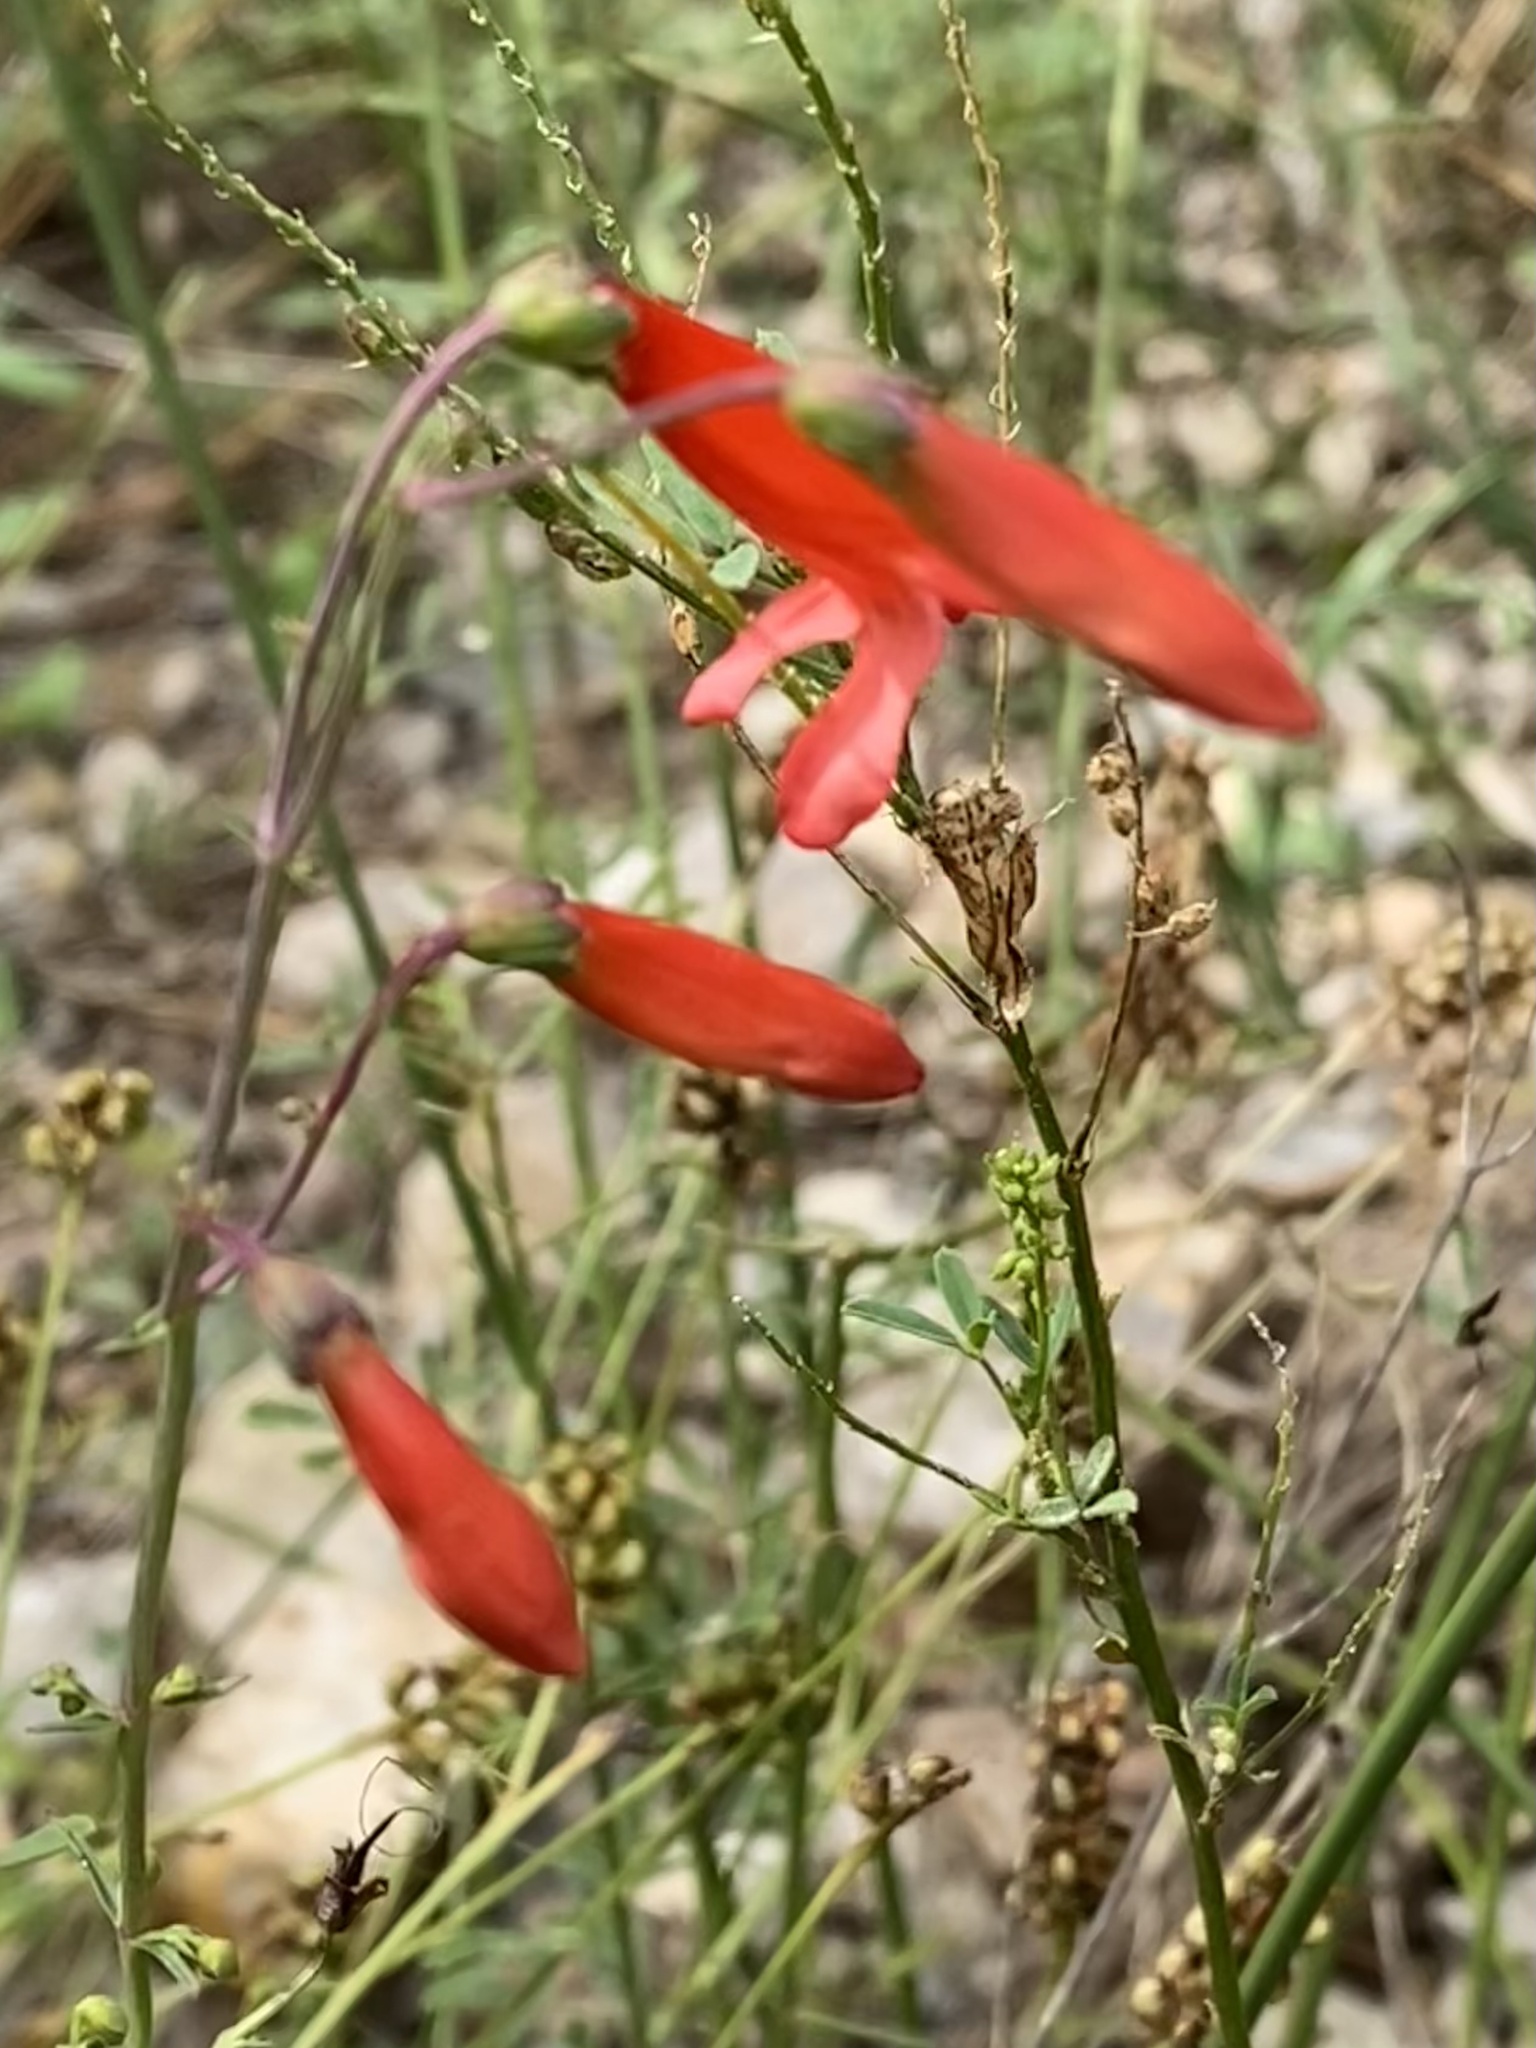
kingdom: Plantae
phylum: Tracheophyta
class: Magnoliopsida
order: Lamiales
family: Plantaginaceae
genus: Penstemon
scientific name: Penstemon barbatus
